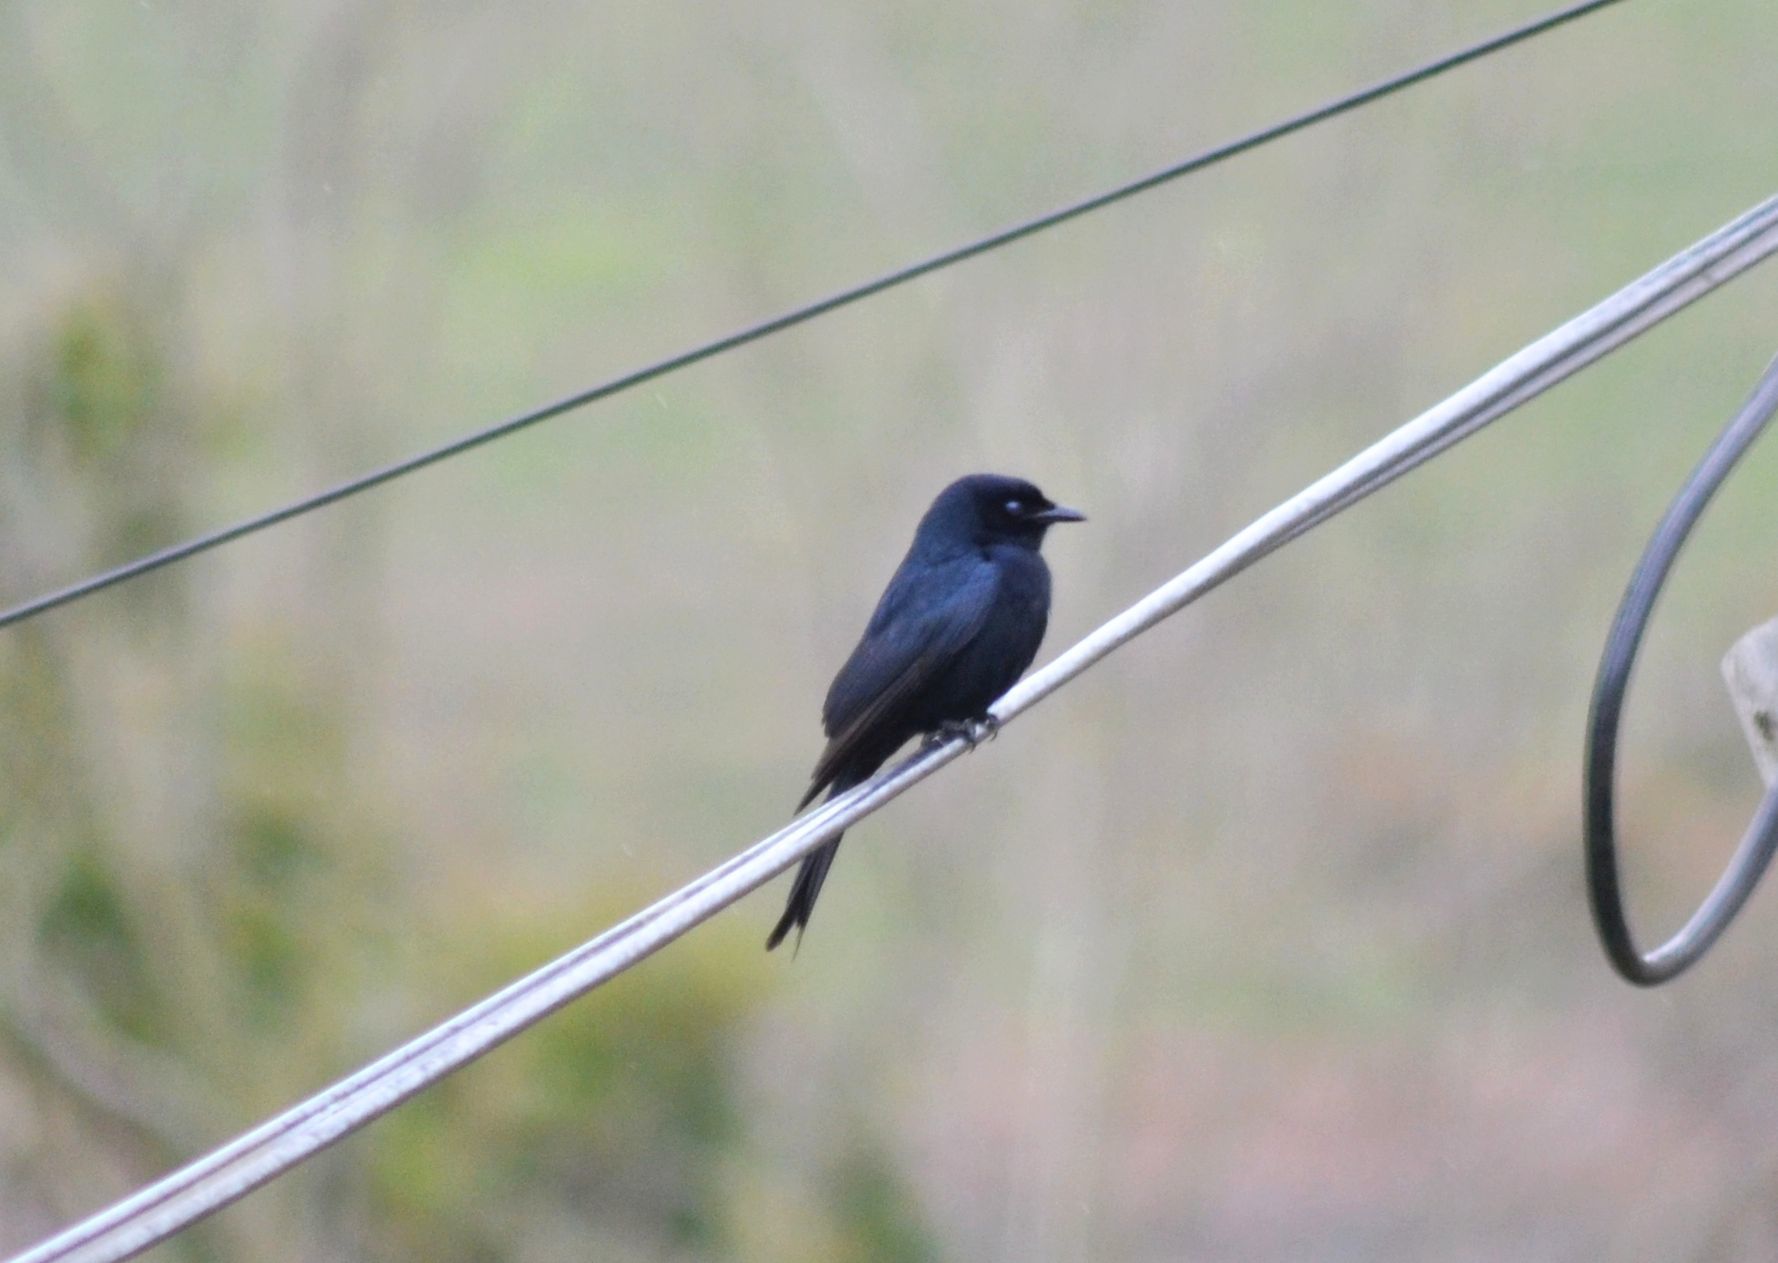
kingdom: Animalia
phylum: Chordata
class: Aves
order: Passeriformes
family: Dicruridae
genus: Dicrurus
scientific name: Dicrurus adsimilis
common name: Fork-tailed drongo
